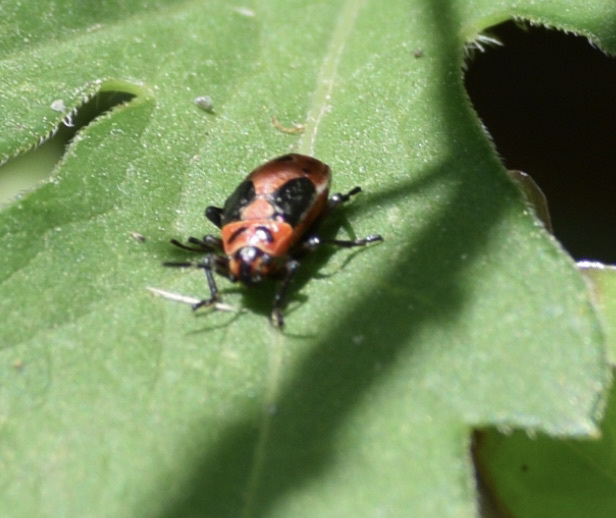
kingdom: Animalia
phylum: Arthropoda
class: Insecta
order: Hemiptera
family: Lygaeidae
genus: Lygaeus
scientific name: Lygaeus kalmii
